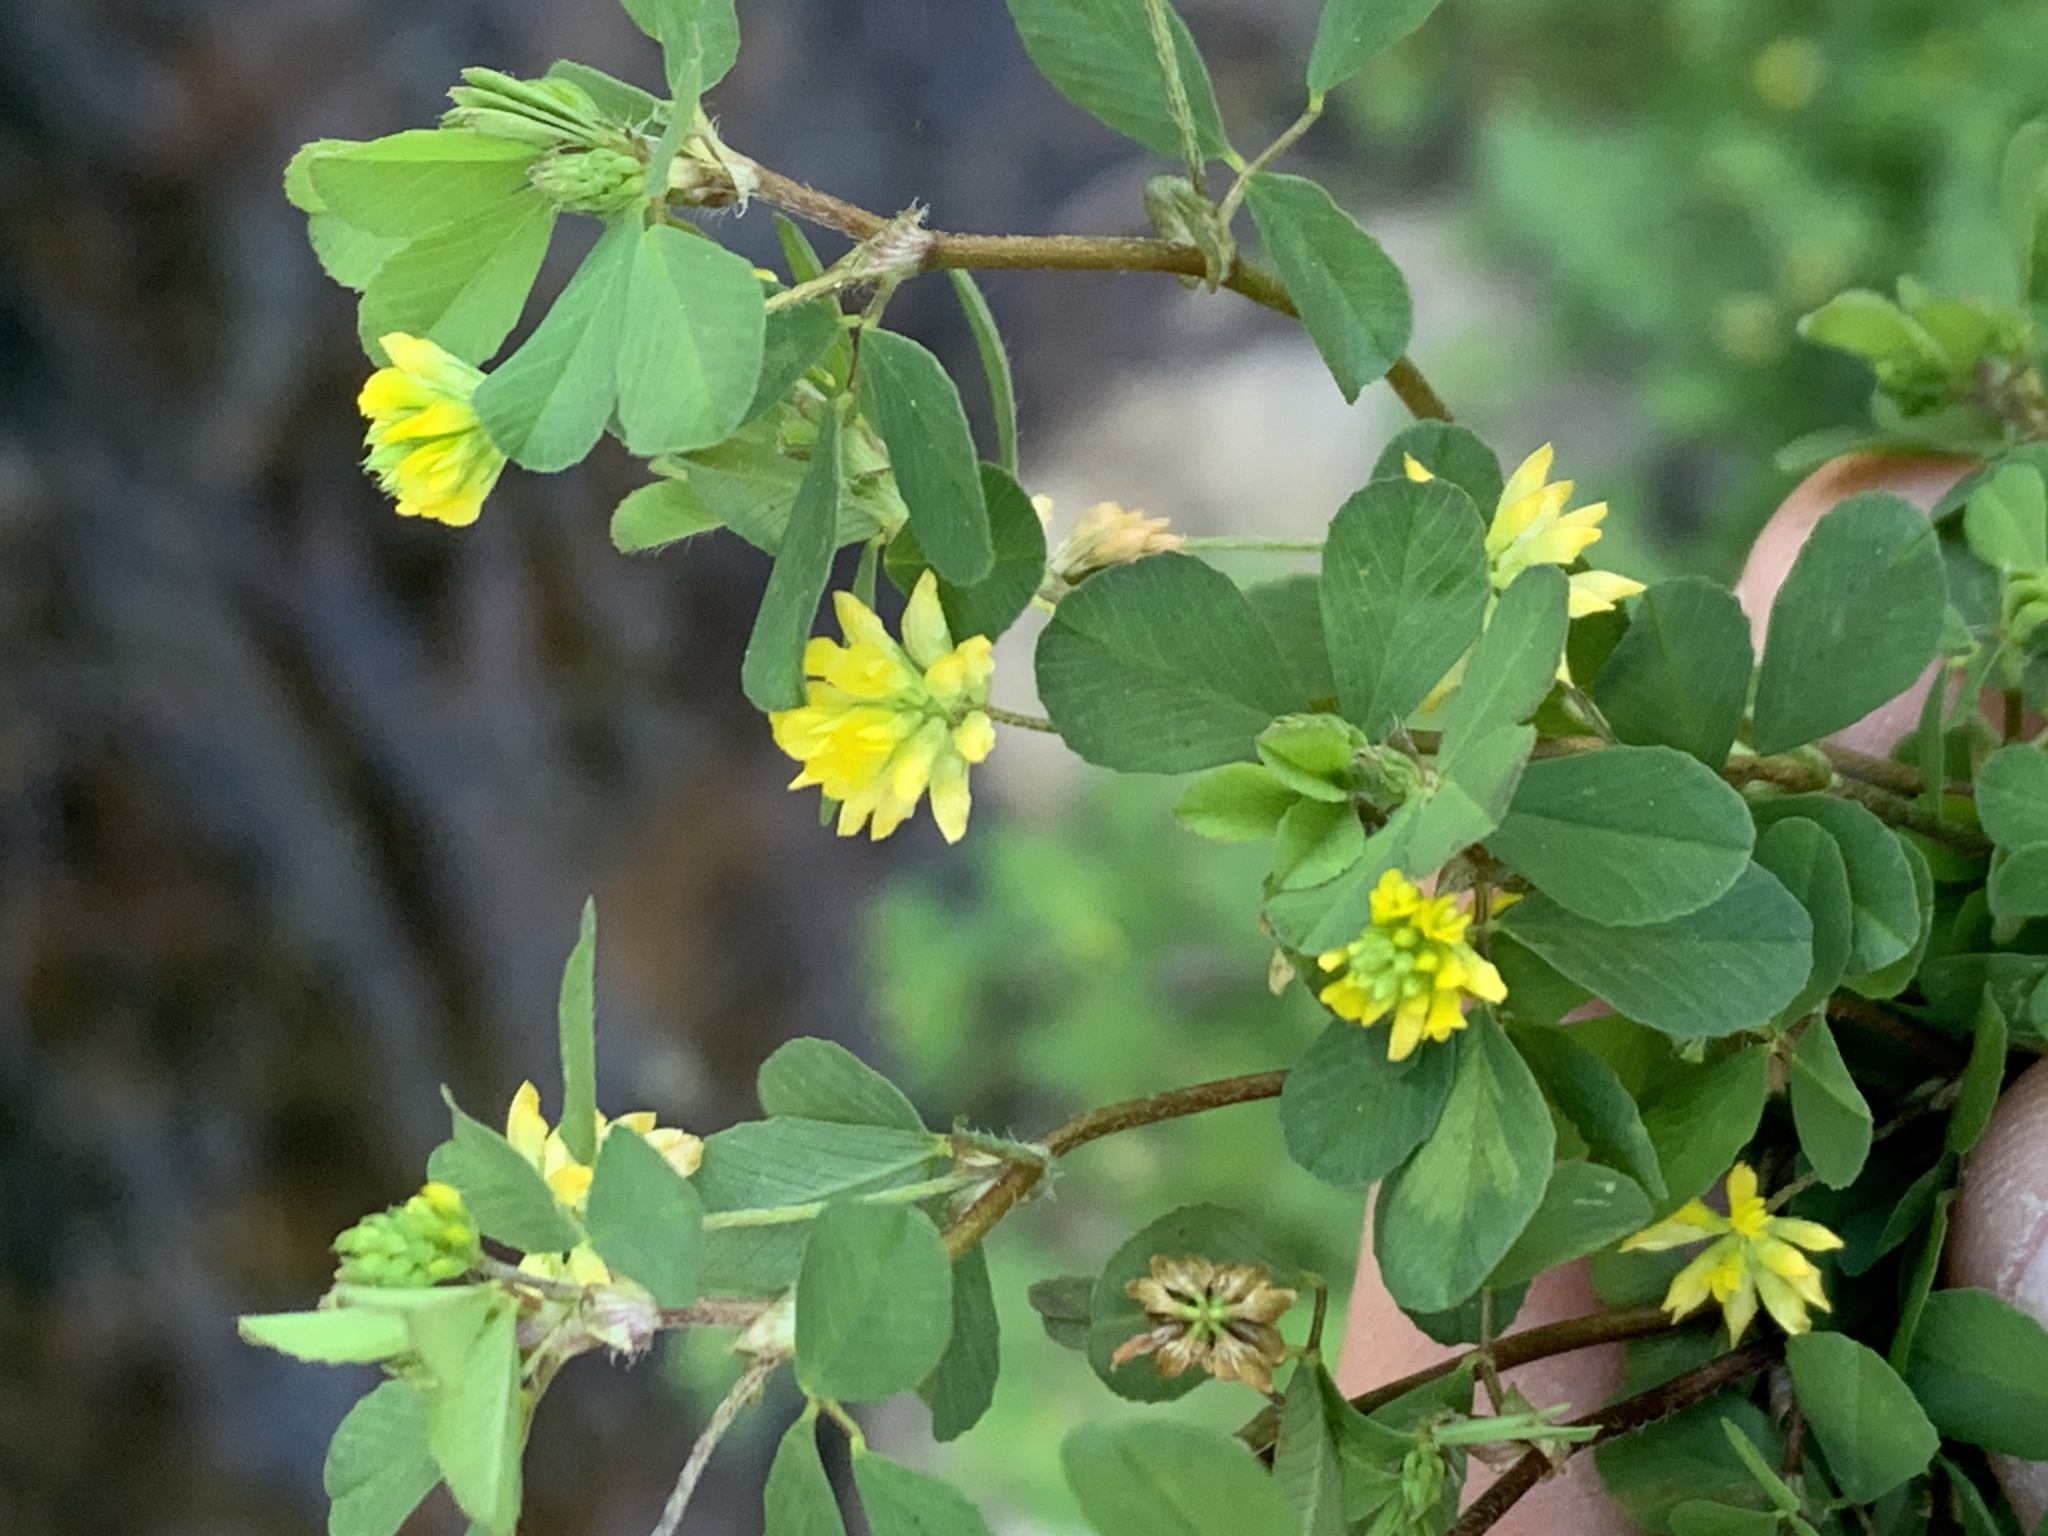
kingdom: Plantae
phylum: Tracheophyta
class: Magnoliopsida
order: Fabales
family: Fabaceae
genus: Trifolium
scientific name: Trifolium dubium
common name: Suckling clover
